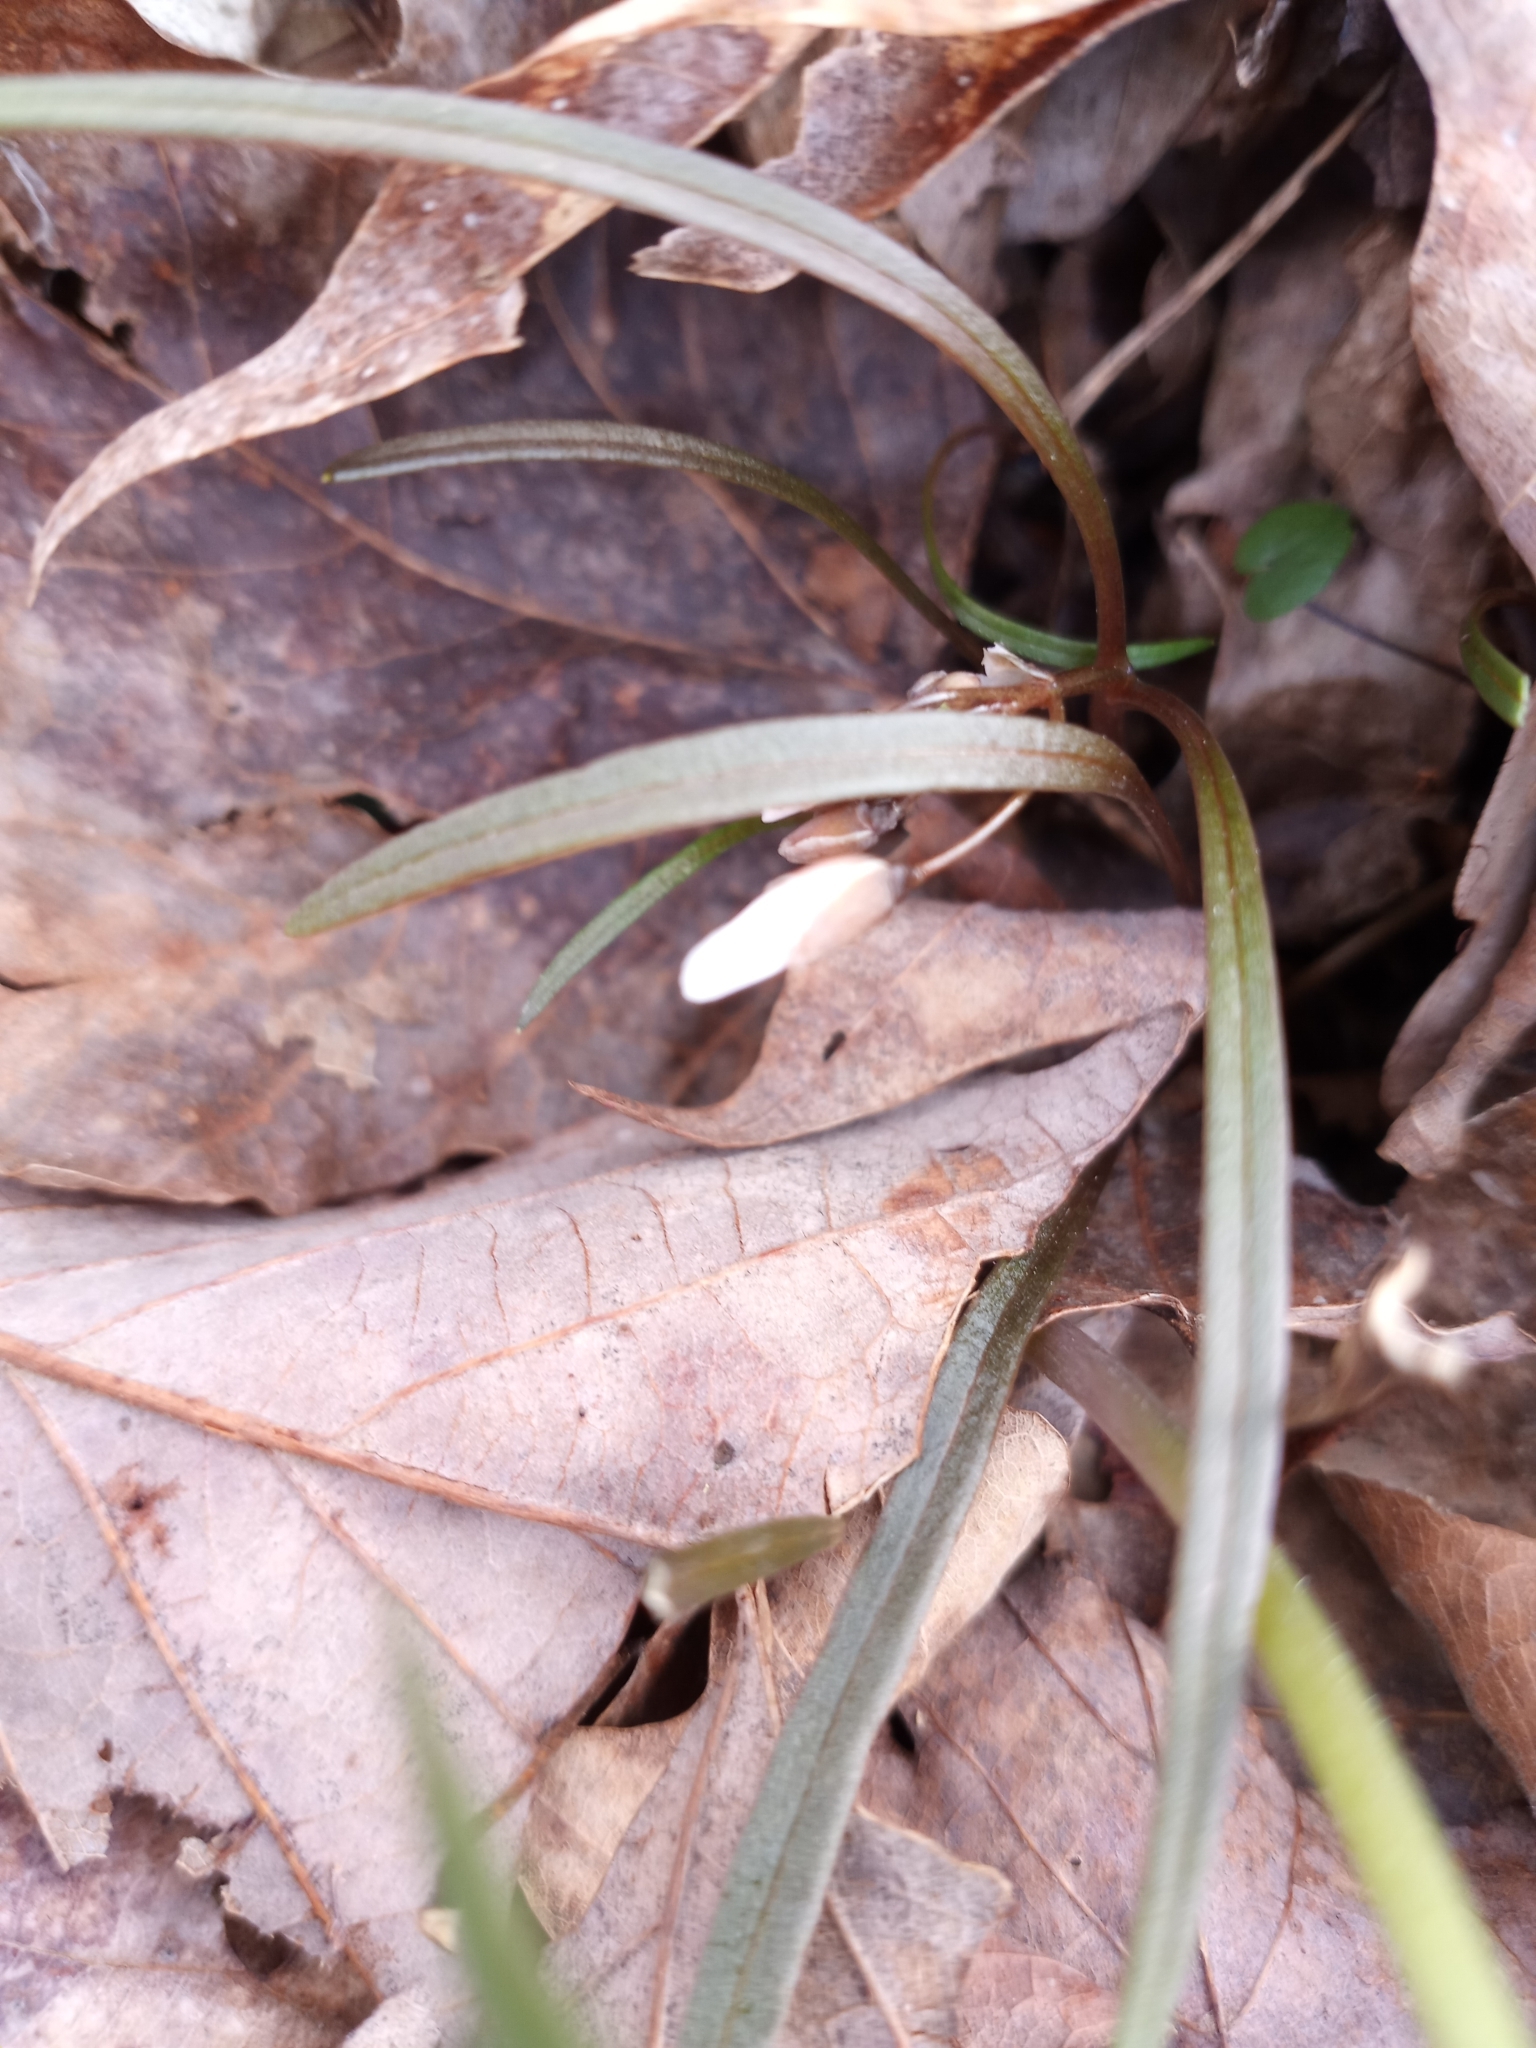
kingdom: Plantae
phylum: Tracheophyta
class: Magnoliopsida
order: Caryophyllales
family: Montiaceae
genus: Claytonia
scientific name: Claytonia virginica
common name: Virginia springbeauty
